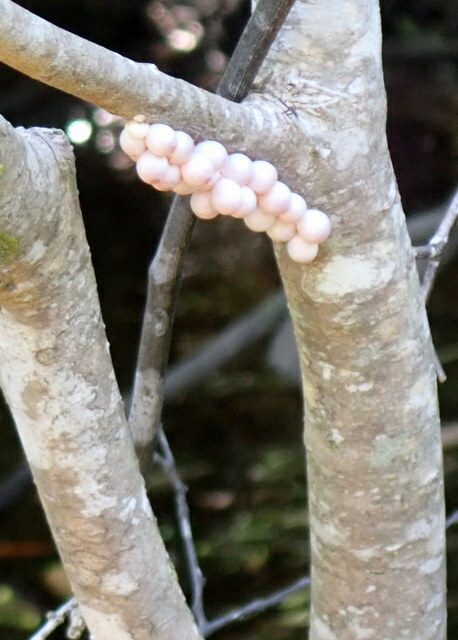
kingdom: Animalia
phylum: Mollusca
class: Gastropoda
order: Architaenioglossa
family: Ampullariidae
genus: Pomacea
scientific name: Pomacea paludosa
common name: Florida applesnail
